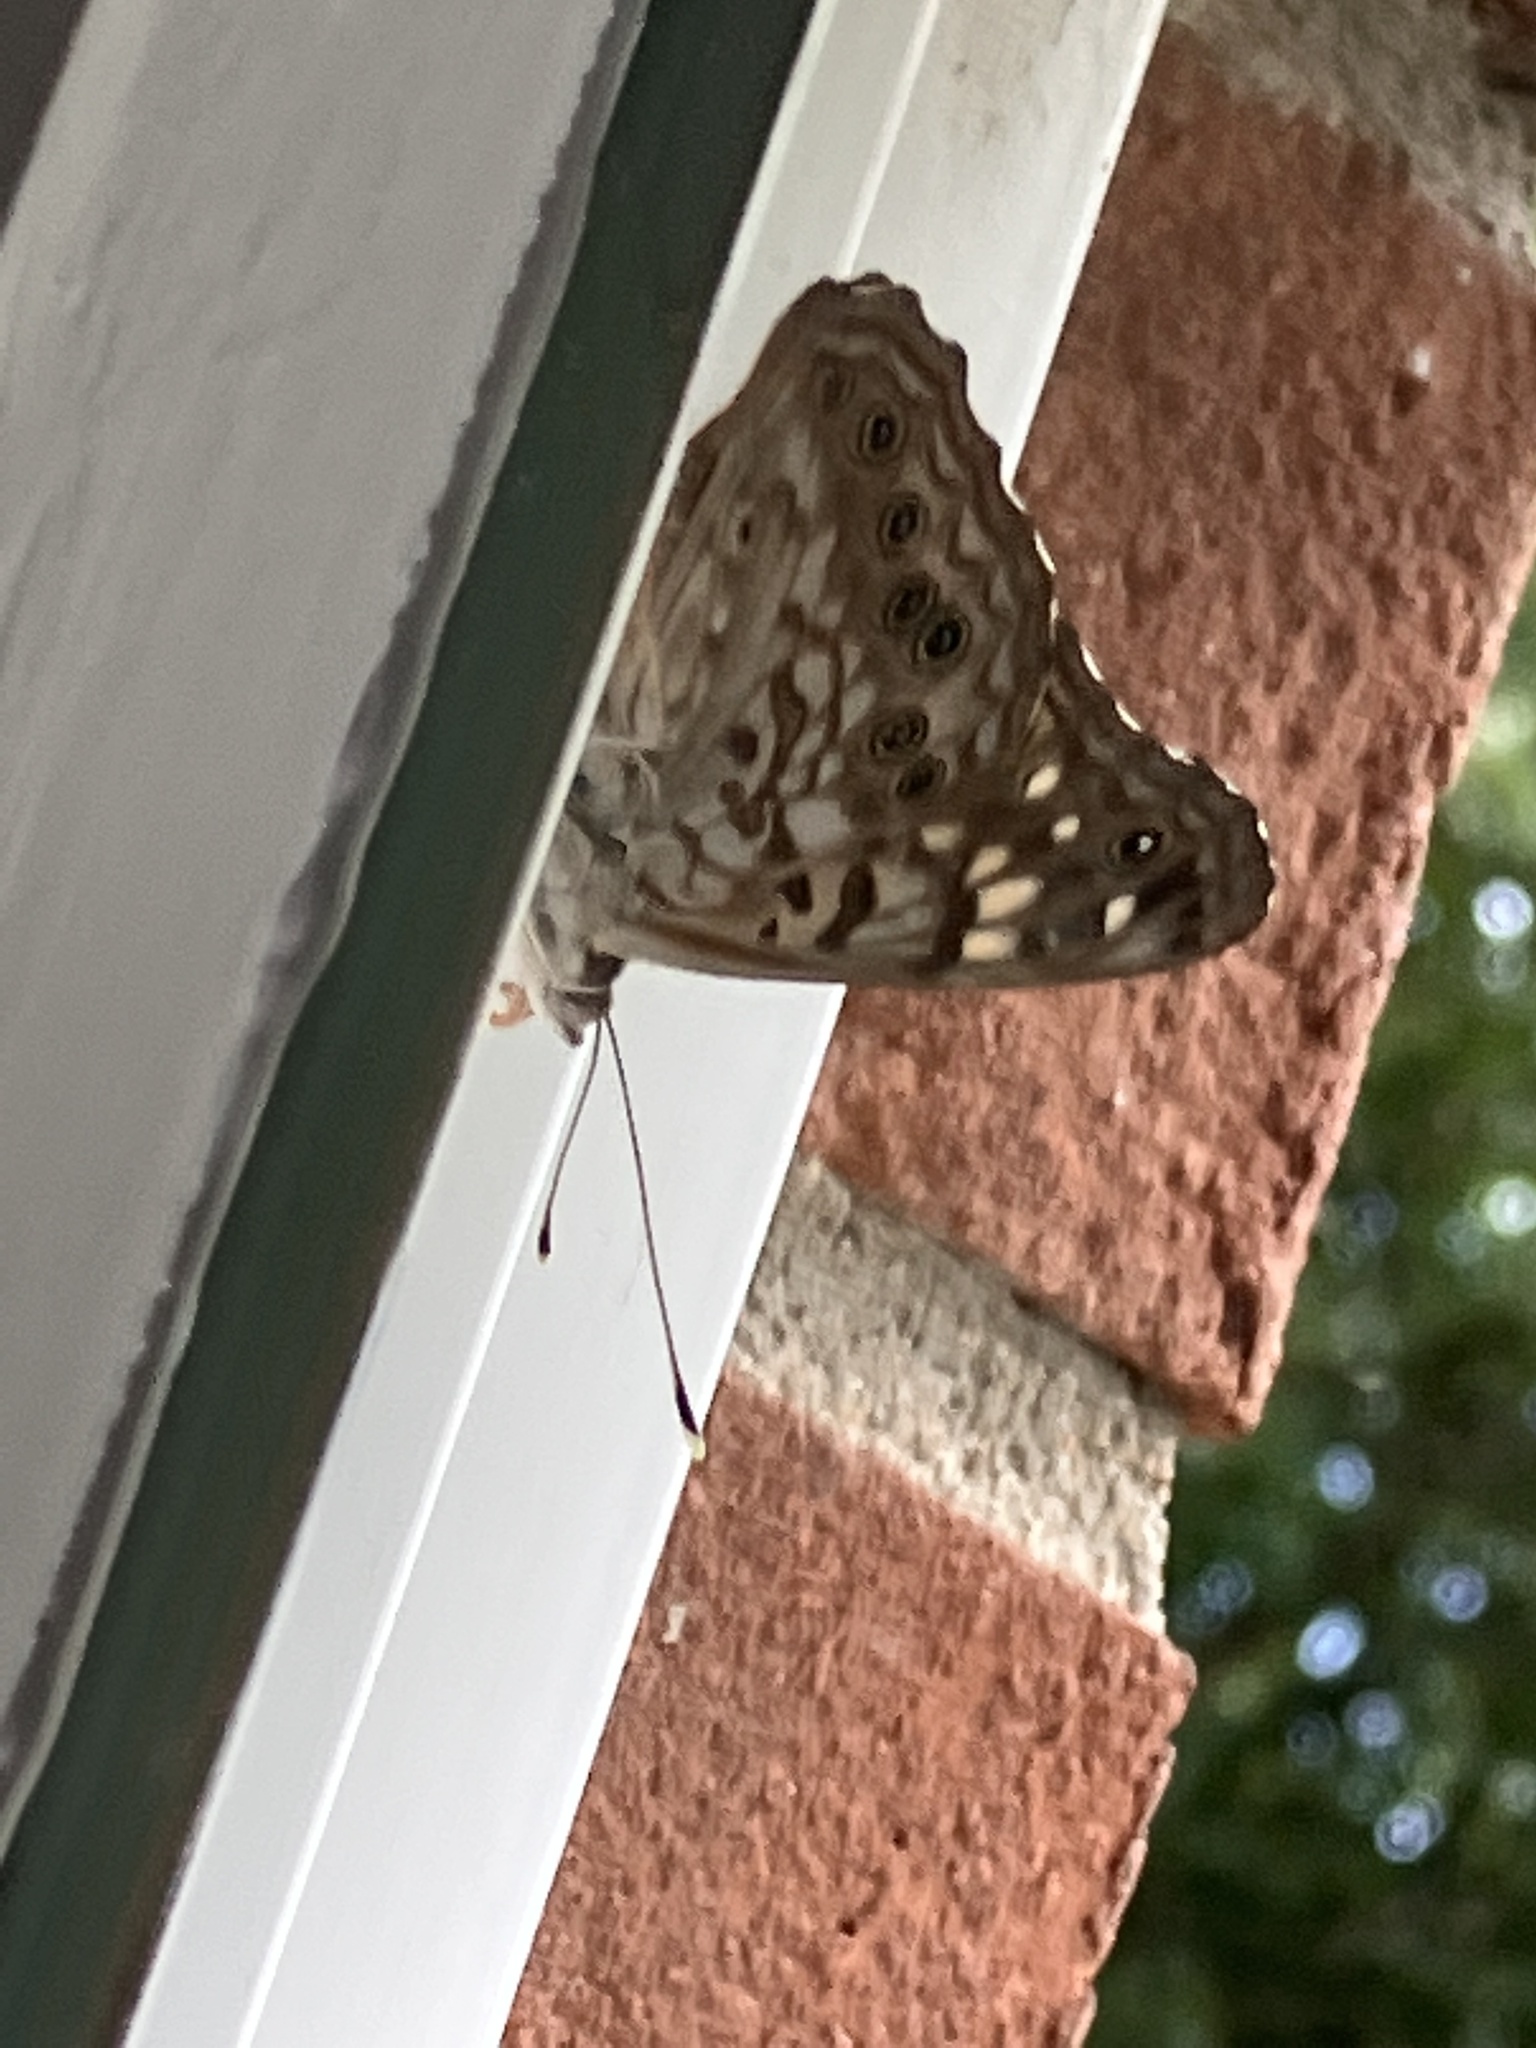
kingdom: Animalia
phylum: Arthropoda
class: Insecta
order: Lepidoptera
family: Nymphalidae
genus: Asterocampa
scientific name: Asterocampa celtis
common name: Hackberry emperor
